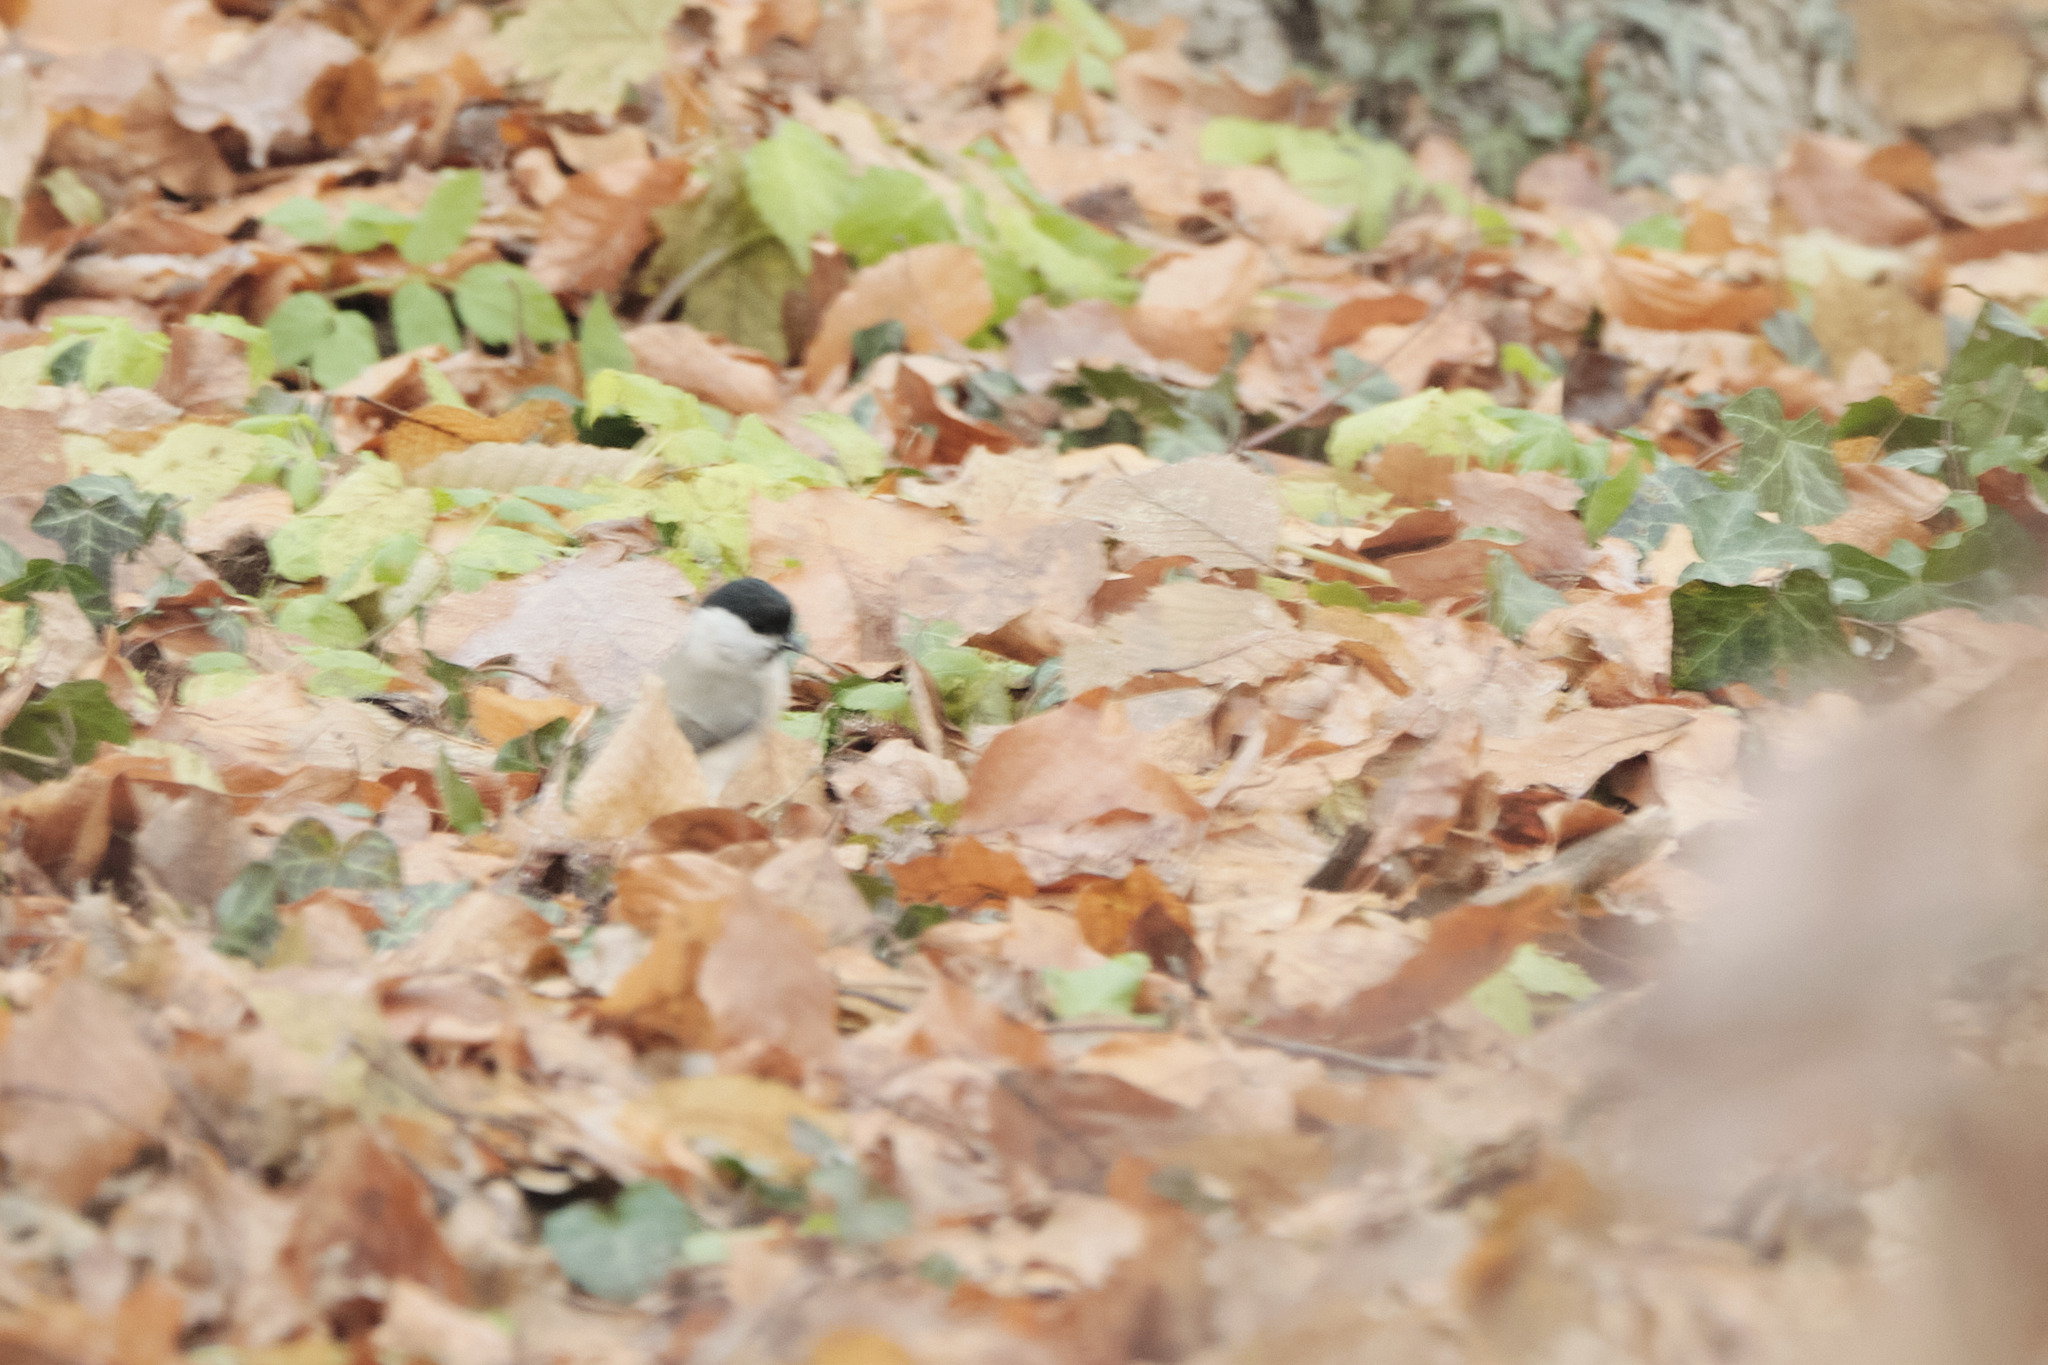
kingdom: Animalia
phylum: Chordata
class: Aves
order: Passeriformes
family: Paridae
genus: Poecile
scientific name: Poecile palustris
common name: Marsh tit
